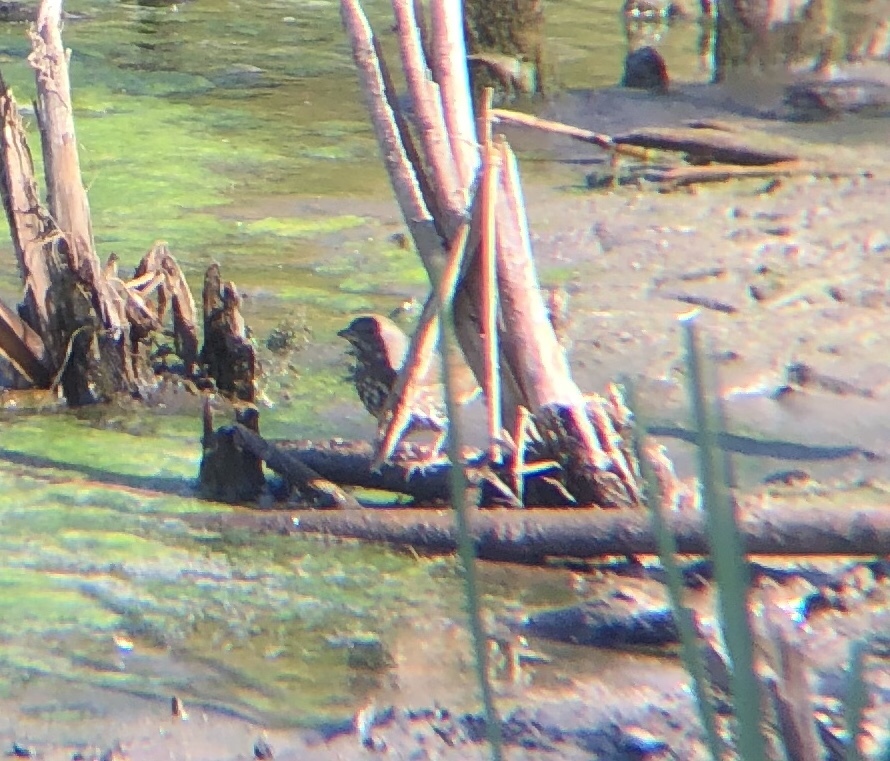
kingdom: Animalia
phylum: Chordata
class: Aves
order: Passeriformes
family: Passerellidae
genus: Passerella
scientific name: Passerella iliaca
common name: Fox sparrow
